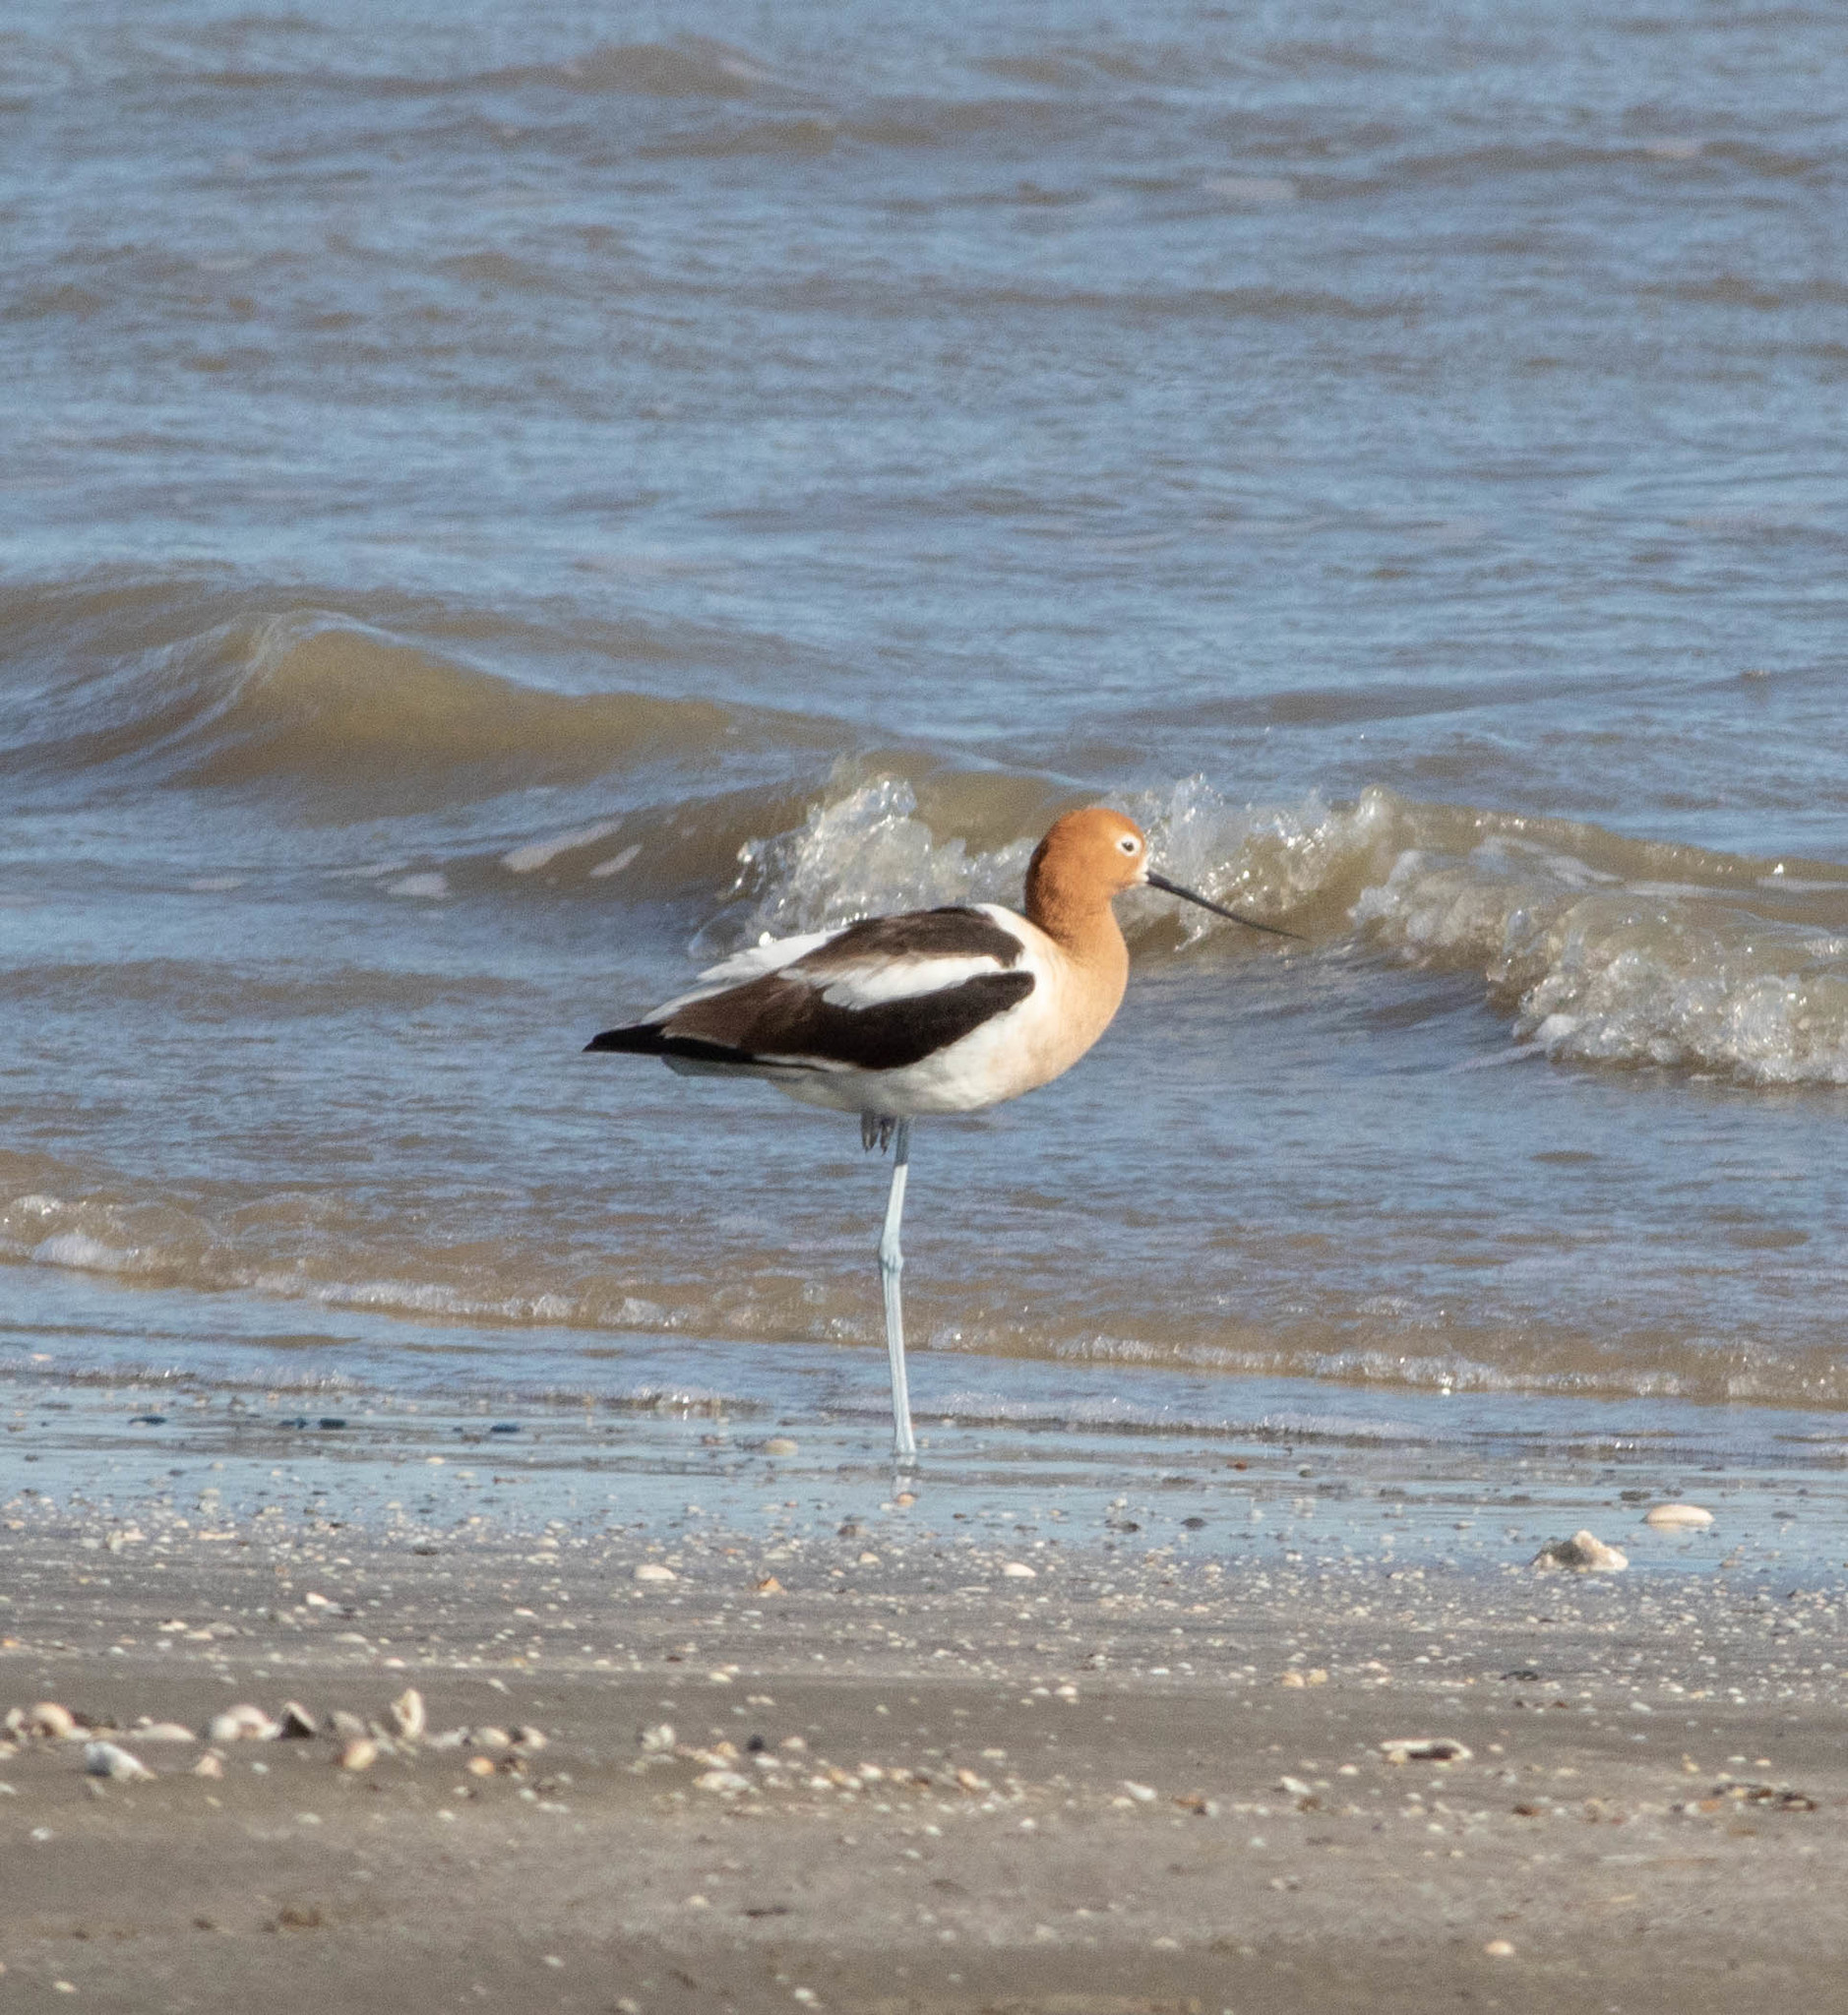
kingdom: Animalia
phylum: Chordata
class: Aves
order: Charadriiformes
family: Recurvirostridae
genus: Recurvirostra
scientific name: Recurvirostra americana
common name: American avocet
